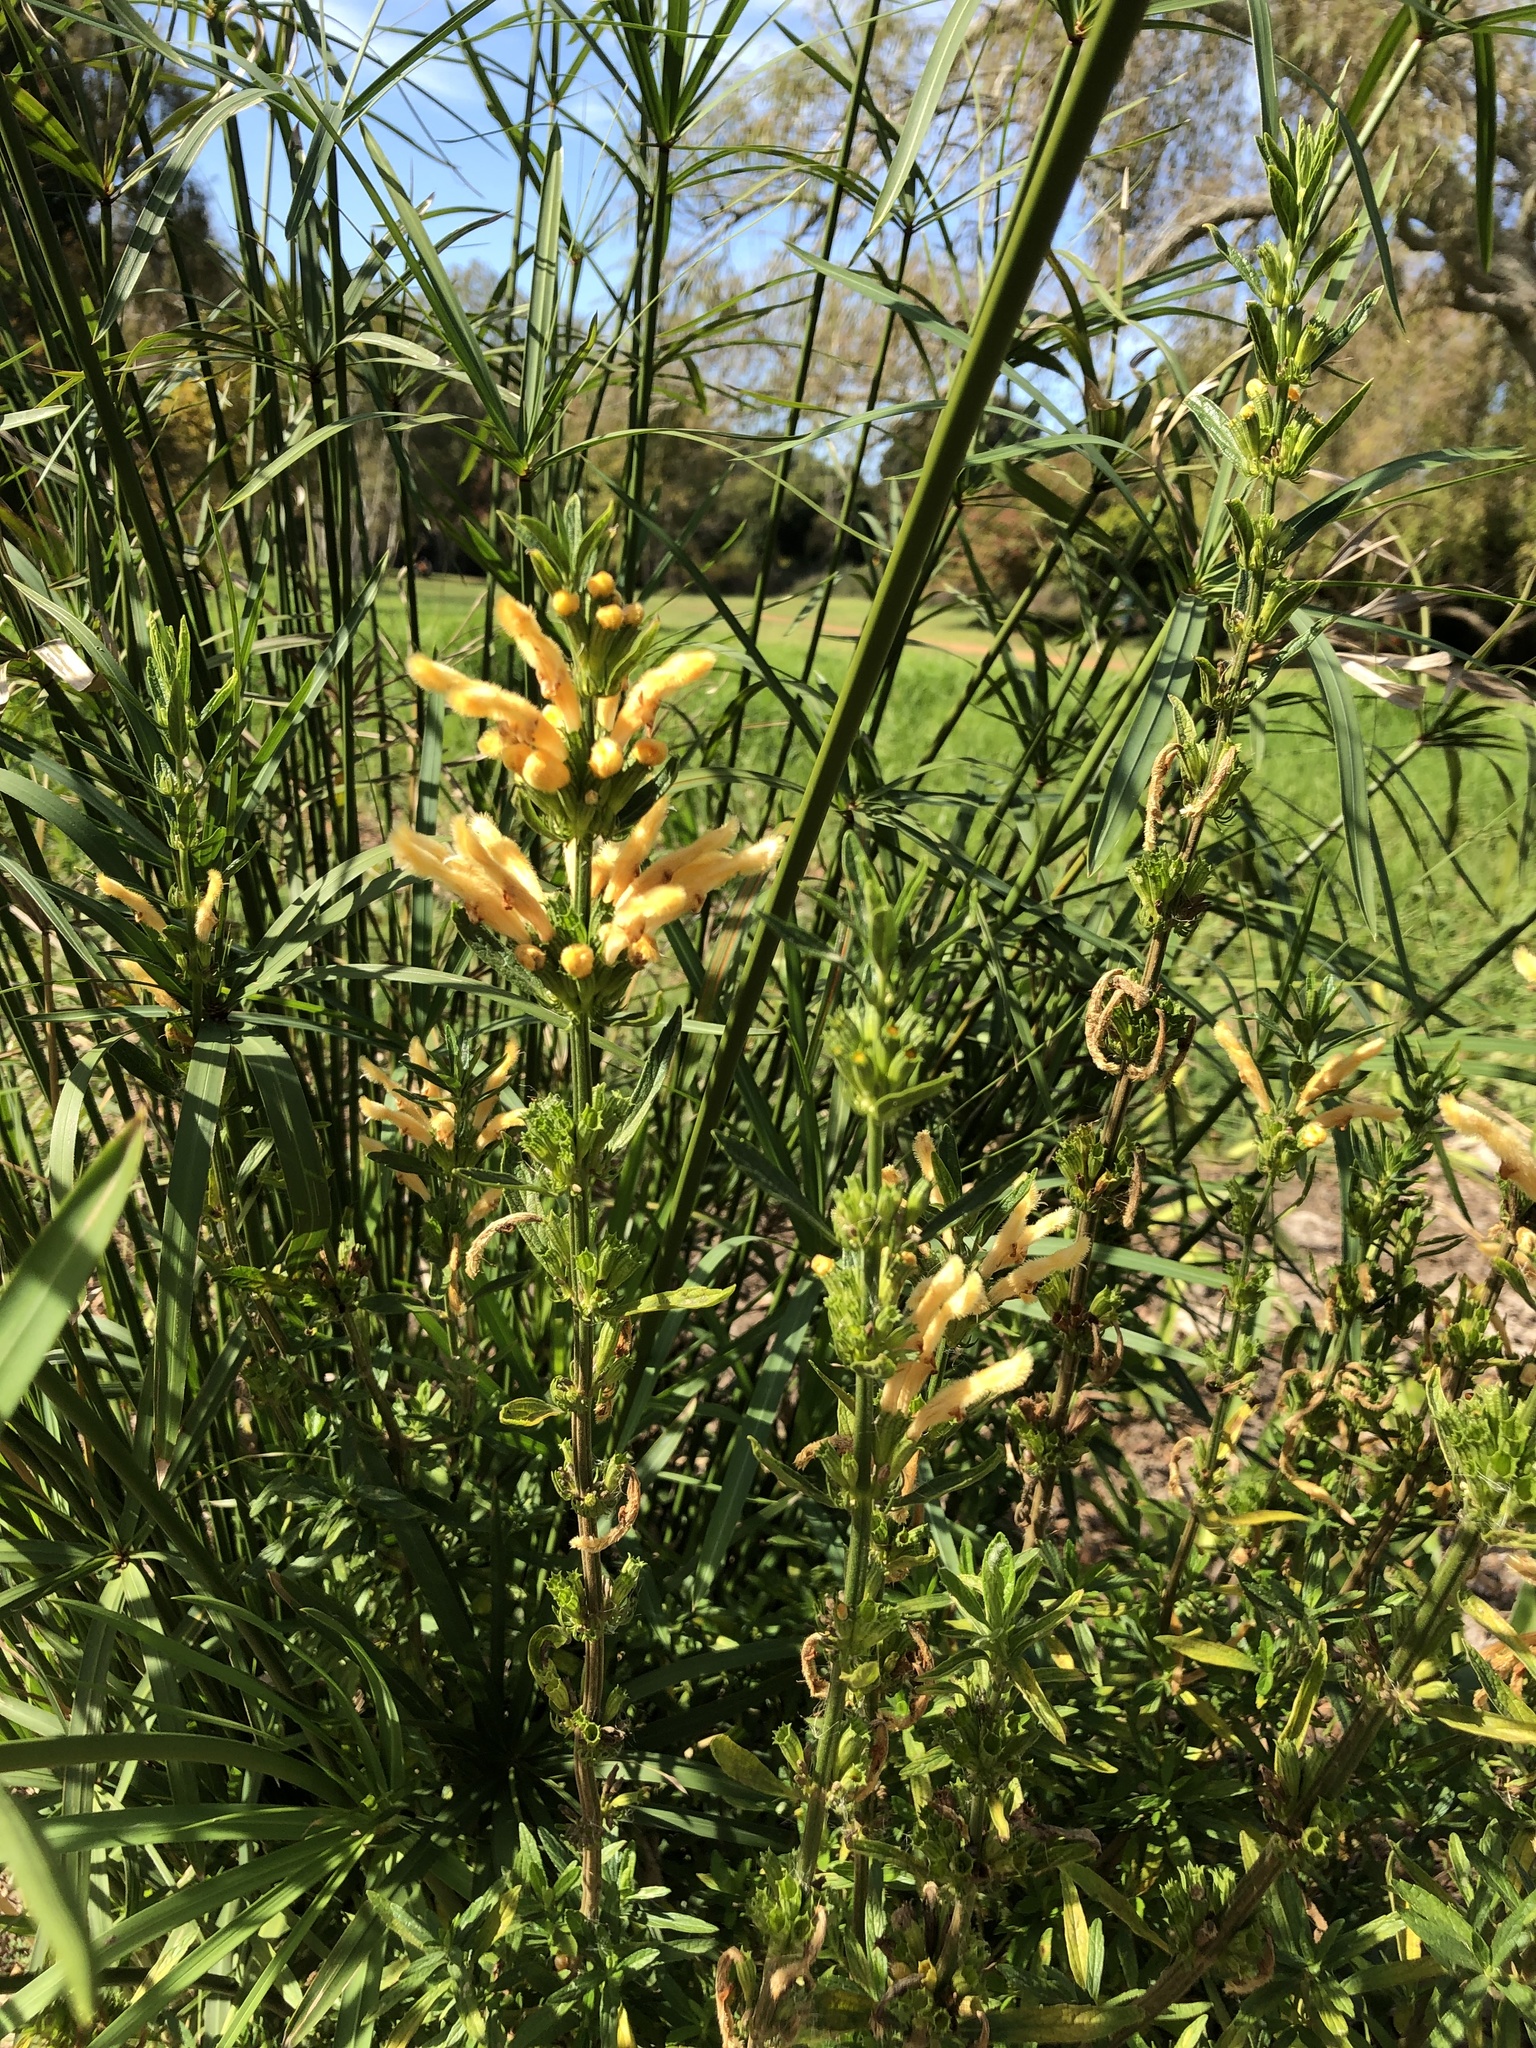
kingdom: Plantae
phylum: Tracheophyta
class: Magnoliopsida
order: Lamiales
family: Lamiaceae
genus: Leonotis
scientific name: Leonotis leonurus
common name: Lion's ear
